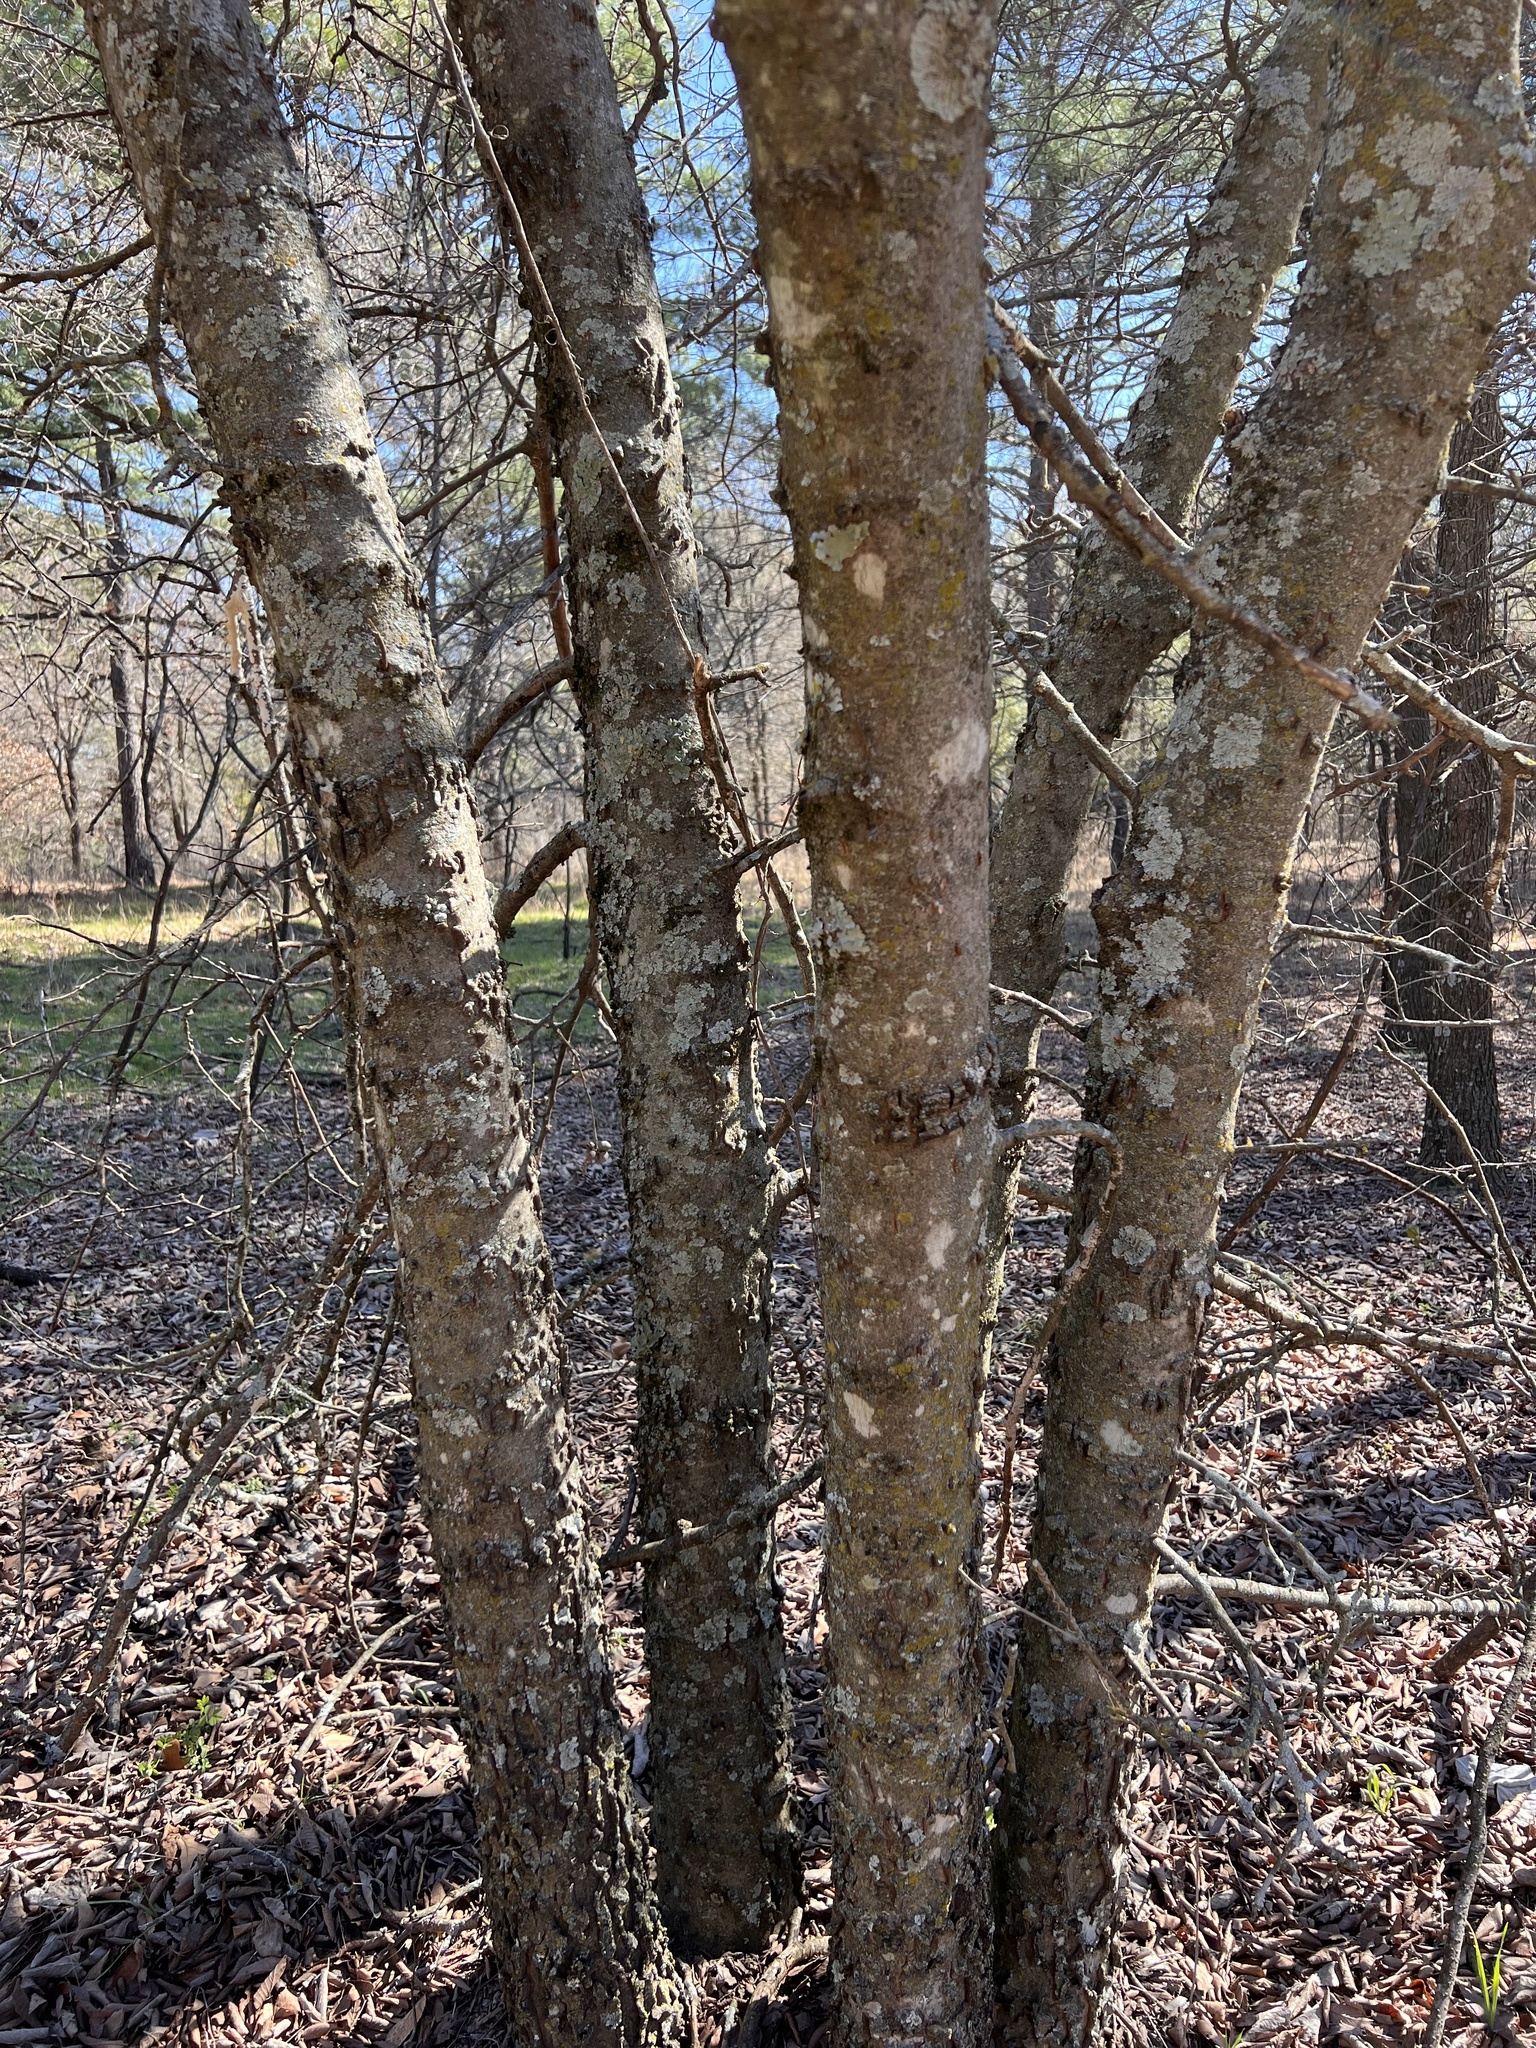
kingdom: Plantae
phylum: Tracheophyta
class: Magnoliopsida
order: Rosales
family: Cannabaceae
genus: Celtis
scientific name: Celtis laevigata
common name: Sugarberry
